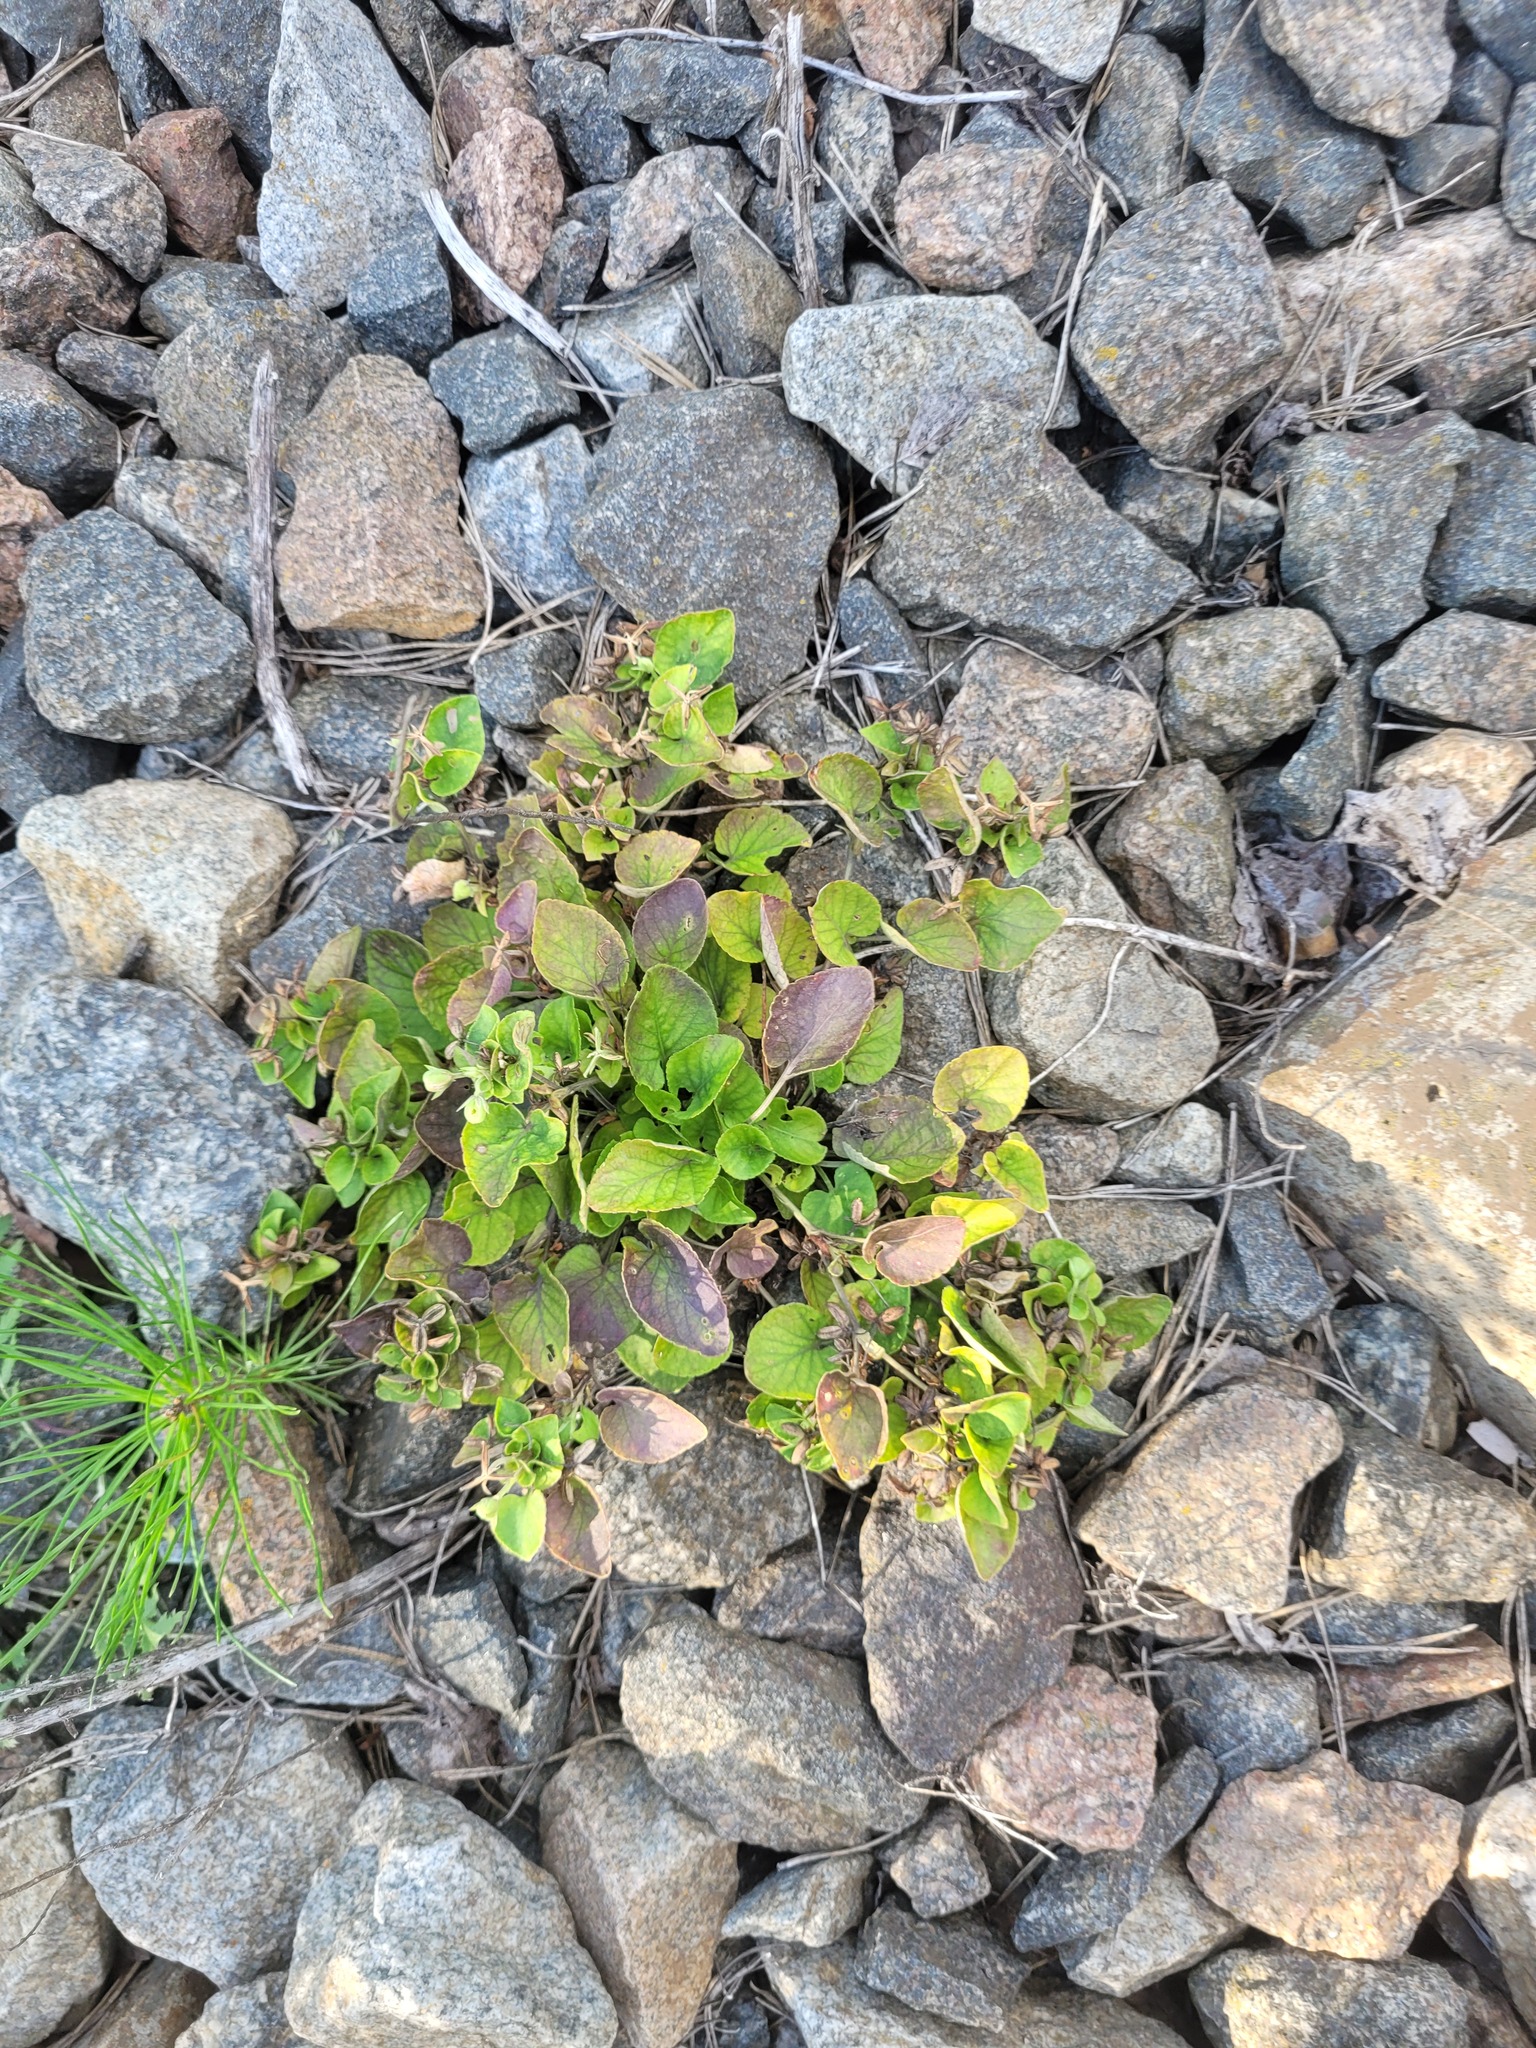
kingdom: Plantae
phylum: Tracheophyta
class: Magnoliopsida
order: Malpighiales
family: Violaceae
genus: Viola
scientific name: Viola rupestris
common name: Teesdale violet
